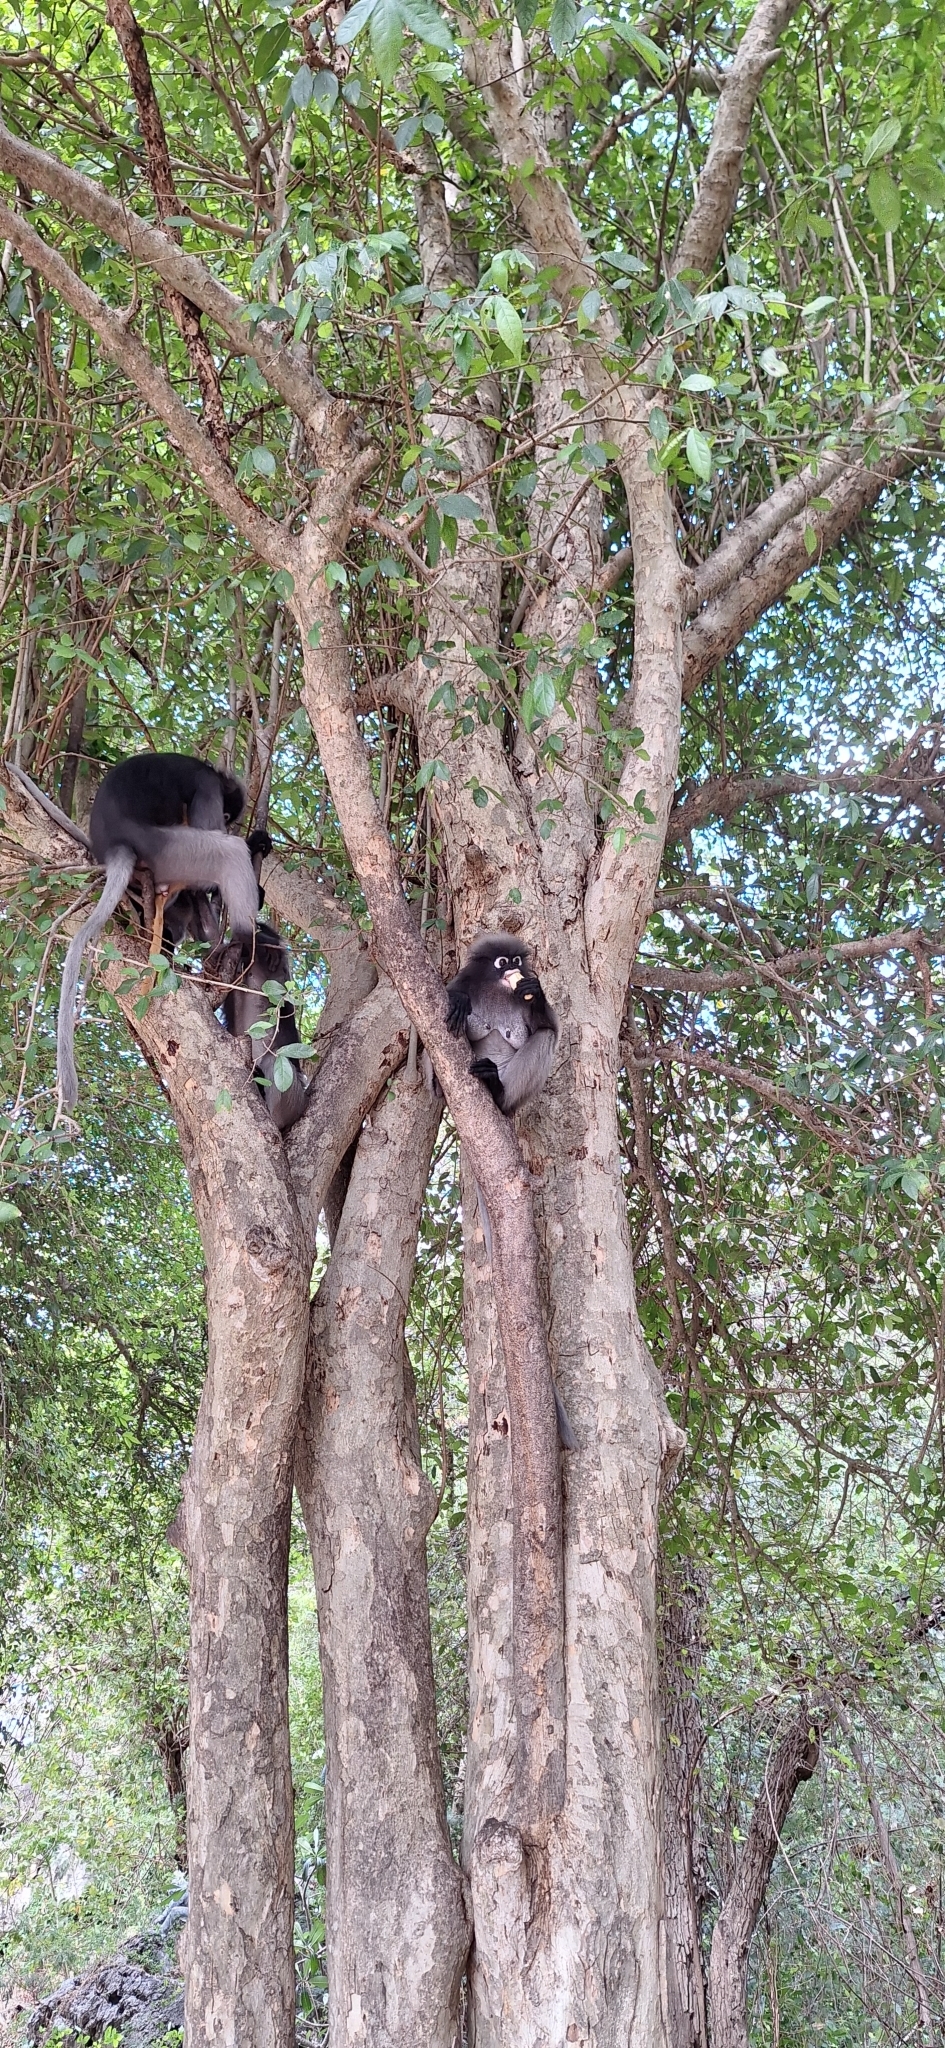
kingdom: Animalia
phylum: Chordata
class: Mammalia
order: Primates
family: Cercopithecidae
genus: Trachypithecus
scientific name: Trachypithecus obscurus
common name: Dusky leaf-monkey
